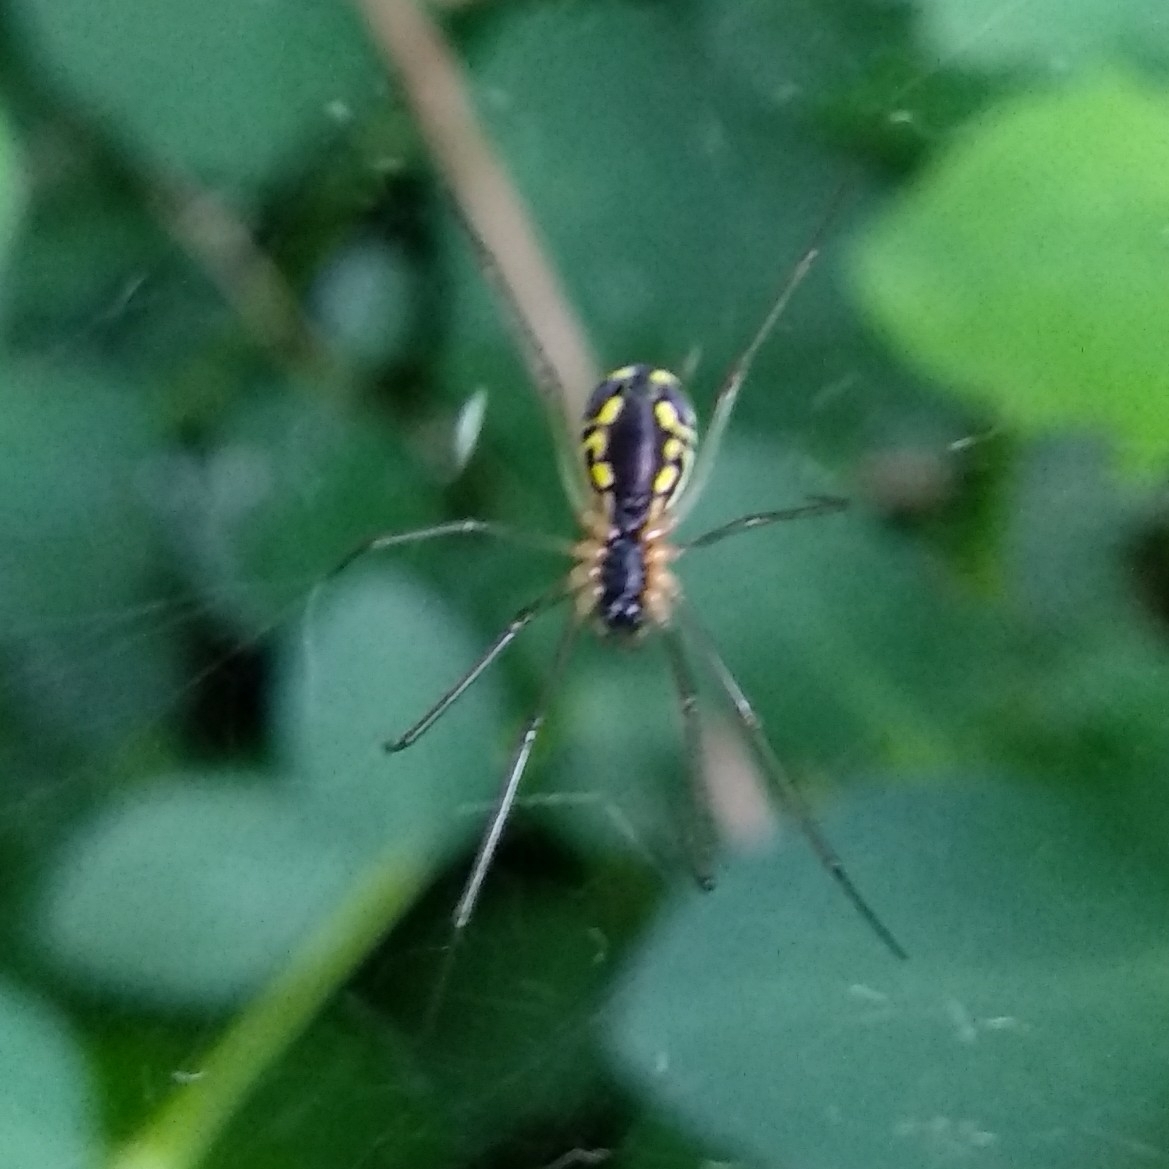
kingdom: Animalia
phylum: Arthropoda
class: Arachnida
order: Araneae
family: Linyphiidae
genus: Neriene
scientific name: Neriene radiata
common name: Filmy dome spider
